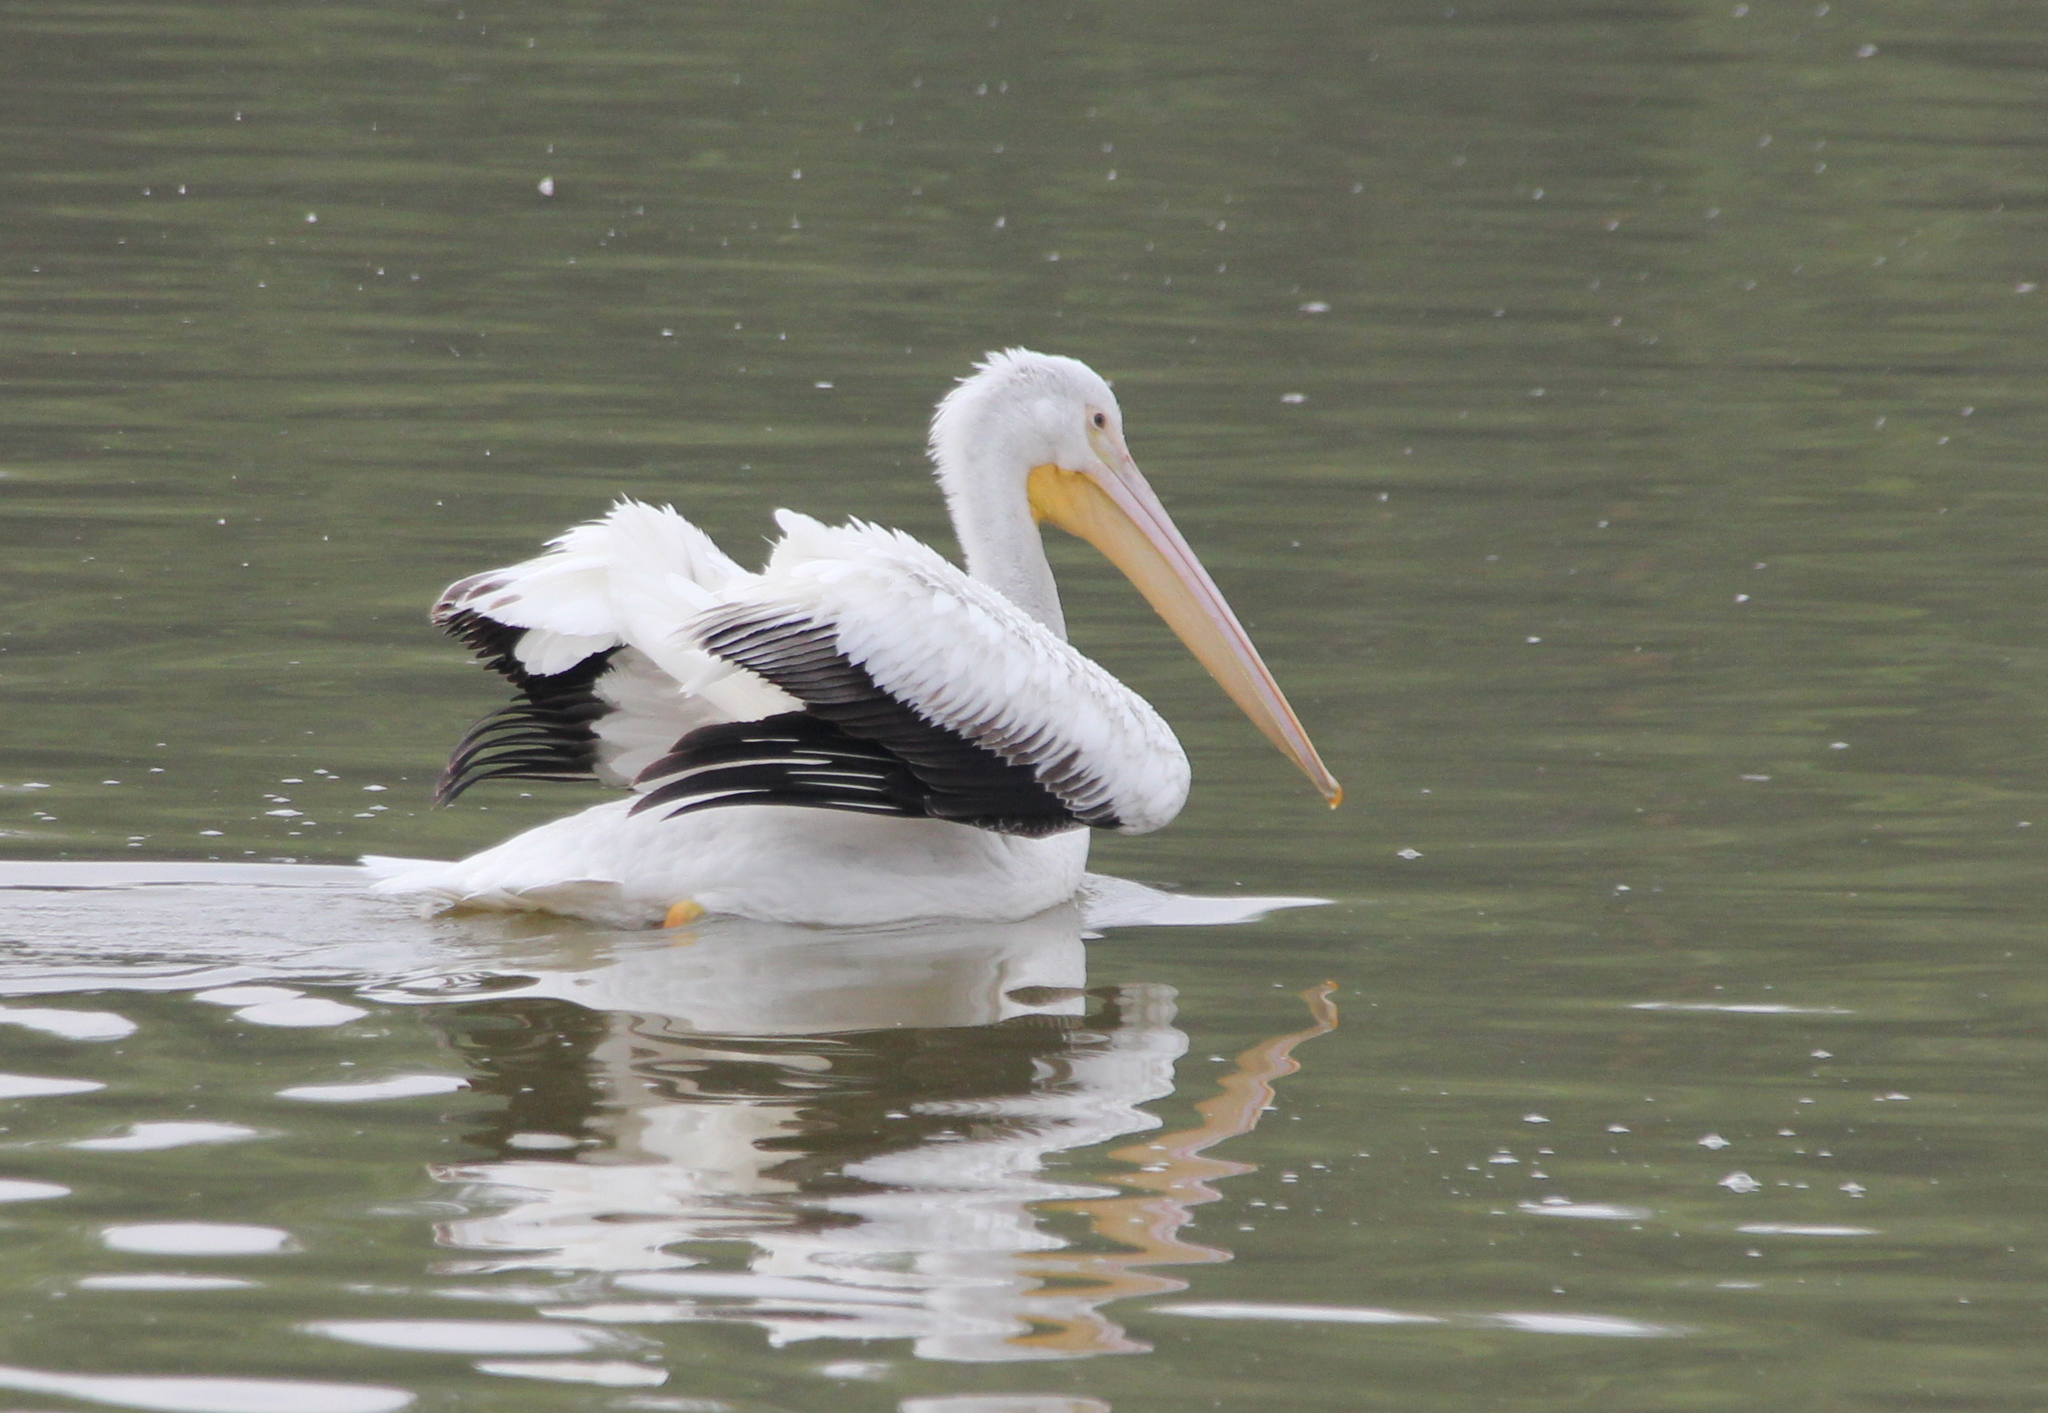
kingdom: Animalia
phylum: Chordata
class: Aves
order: Pelecaniformes
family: Pelecanidae
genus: Pelecanus
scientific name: Pelecanus erythrorhynchos
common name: American white pelican
